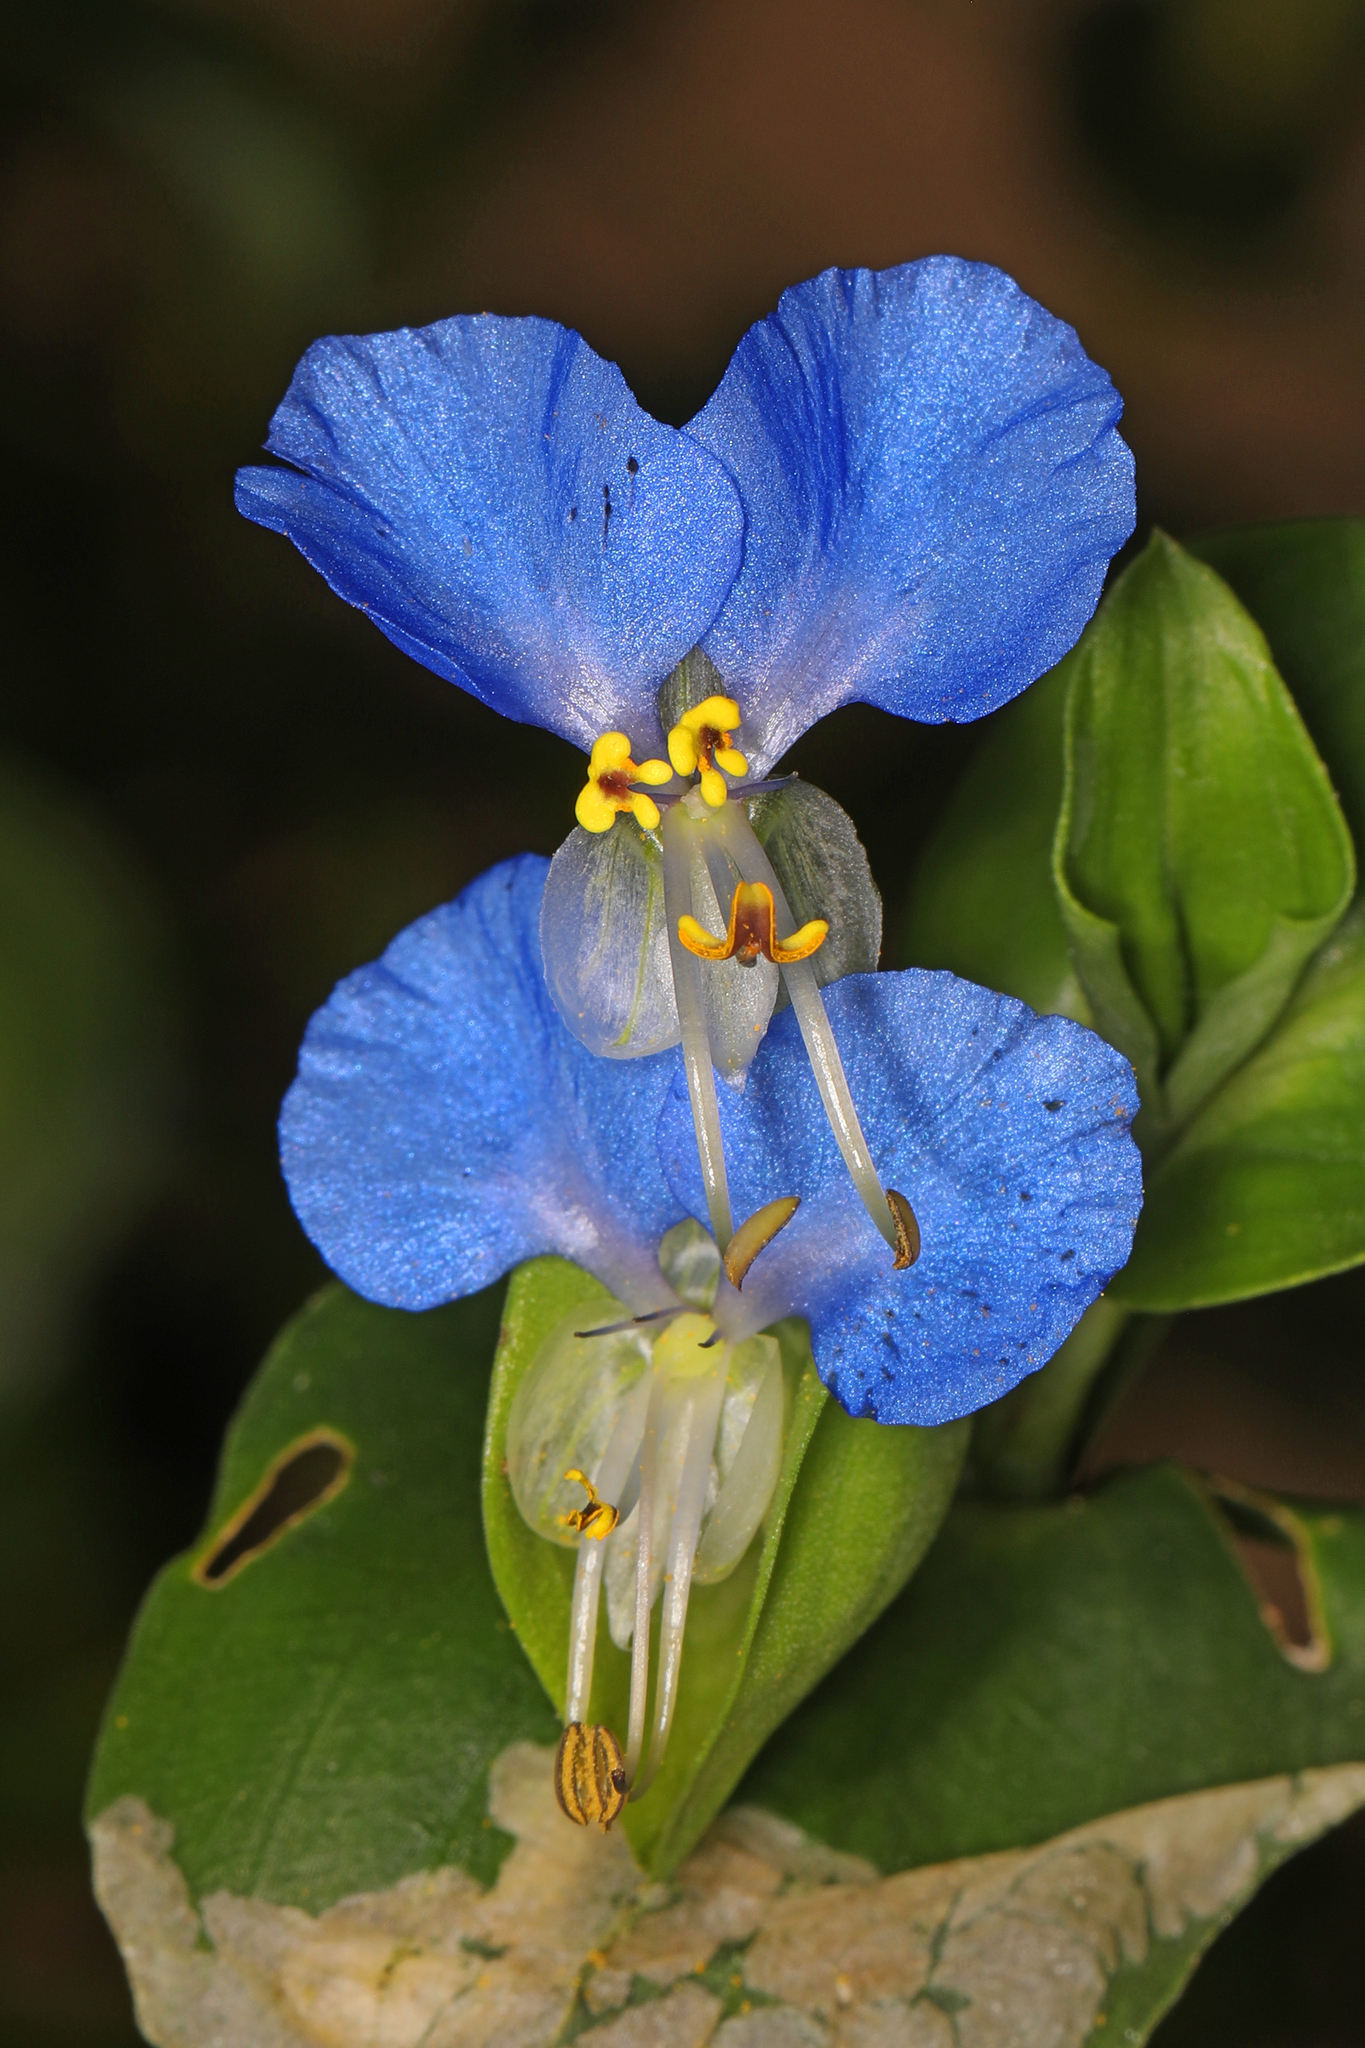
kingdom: Plantae
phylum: Tracheophyta
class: Liliopsida
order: Commelinales
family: Commelinaceae
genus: Commelina
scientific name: Commelina communis
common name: Asiatic dayflower
